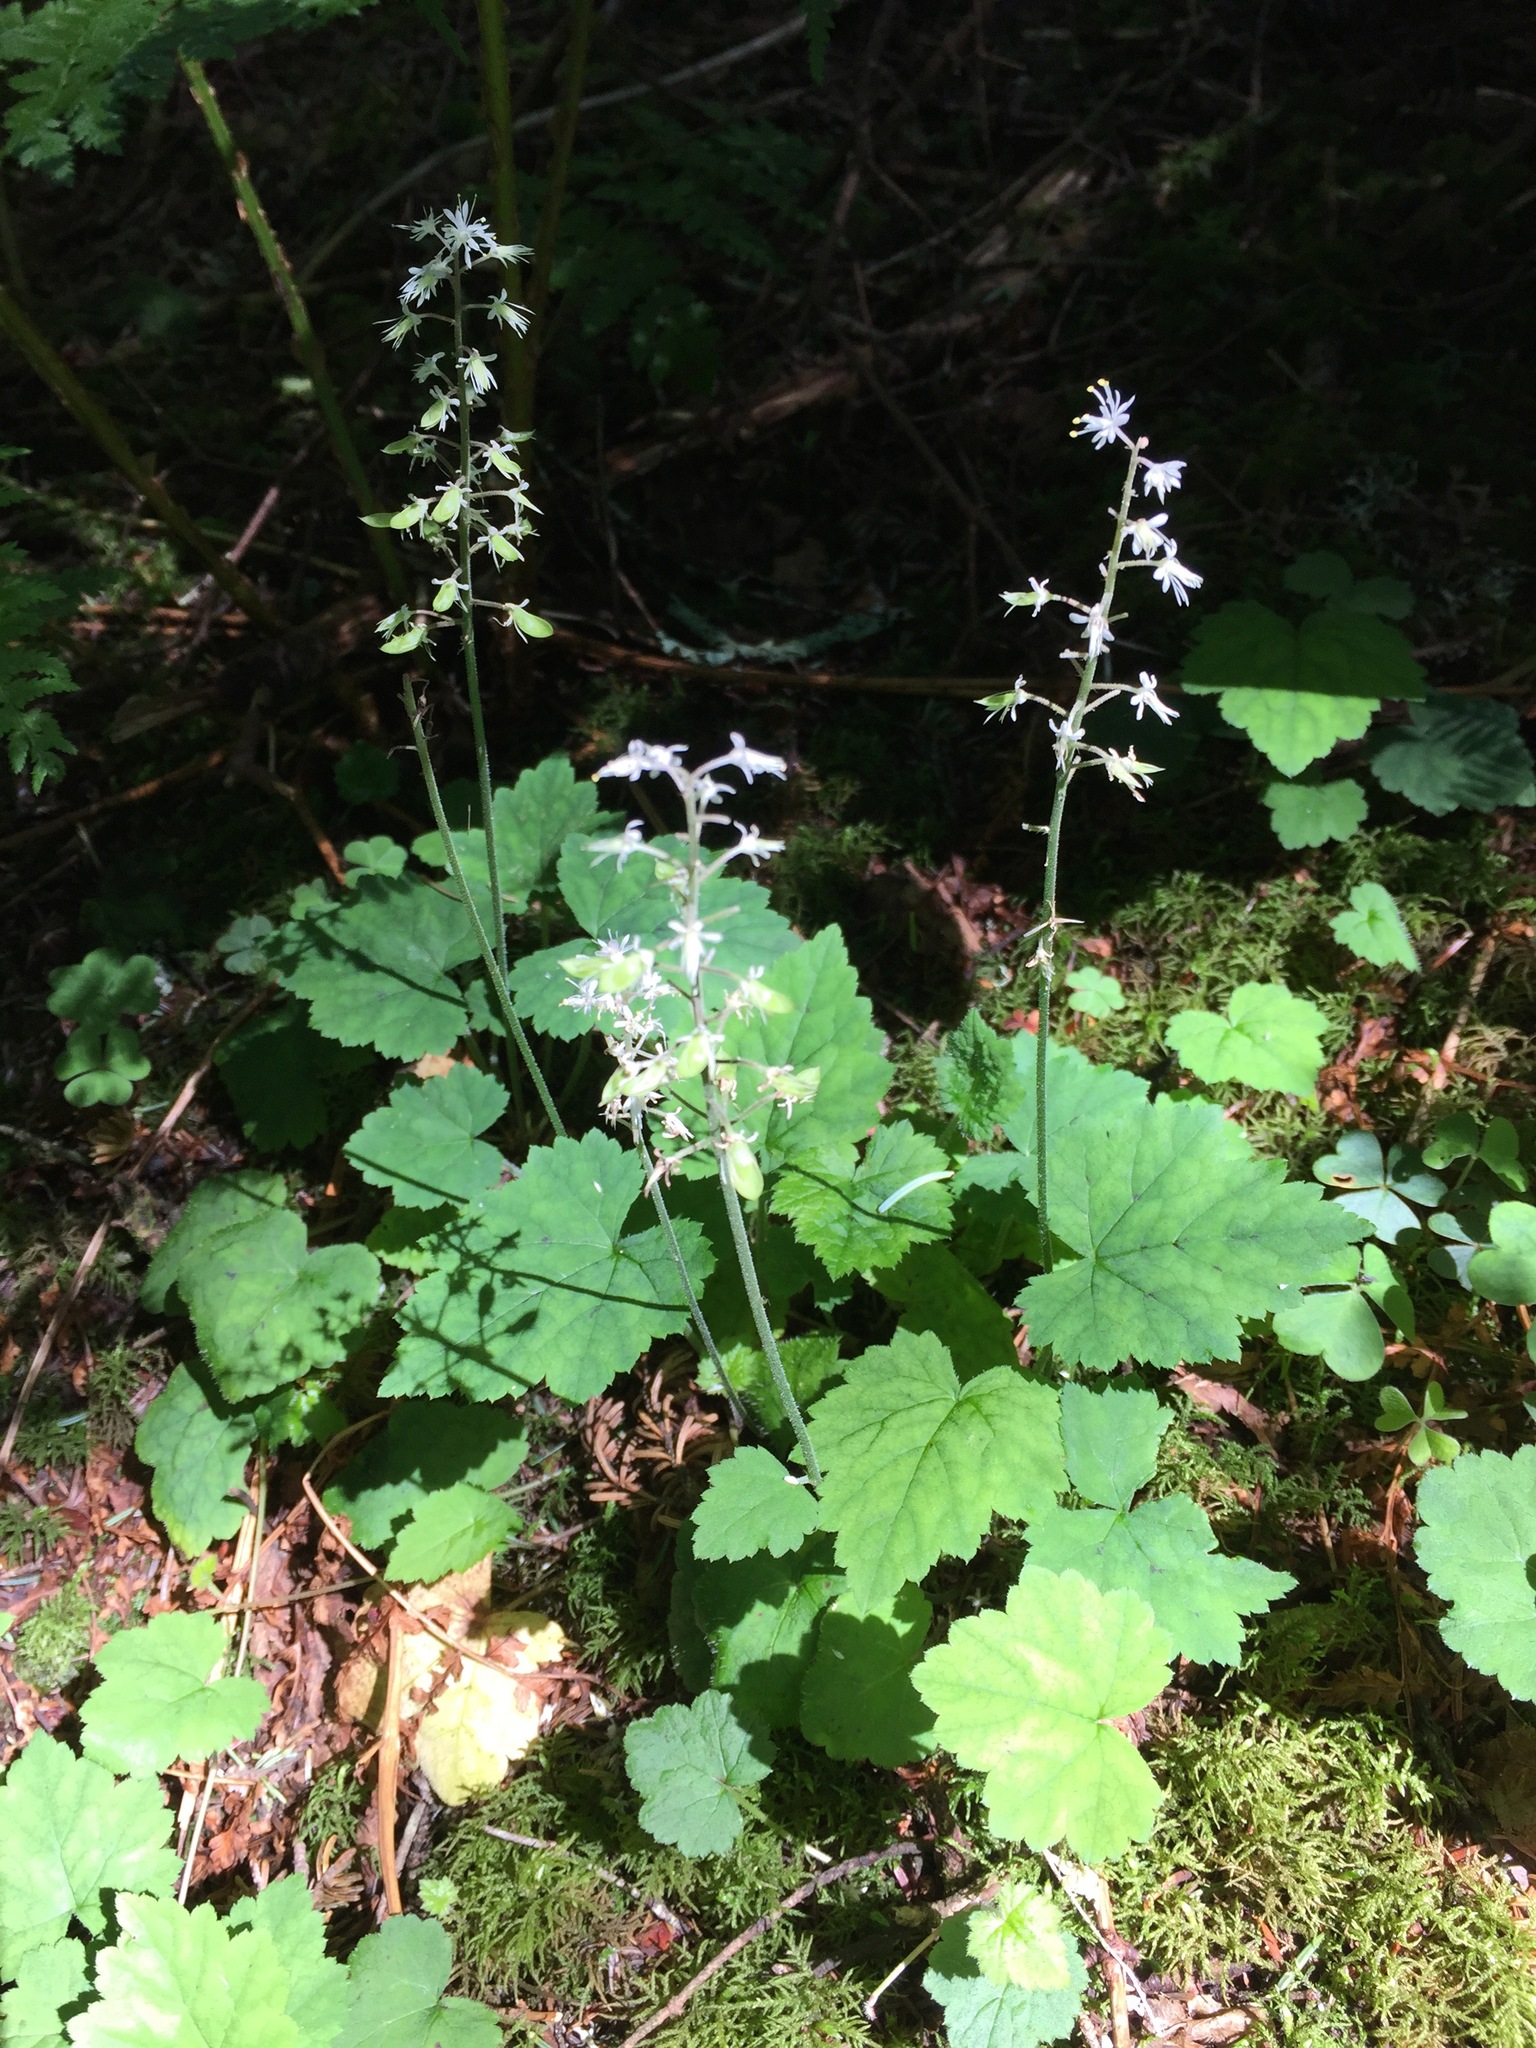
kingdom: Plantae
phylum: Tracheophyta
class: Magnoliopsida
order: Saxifragales
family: Saxifragaceae
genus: Tiarella
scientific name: Tiarella stolonifera
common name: Stoloniferous foamflower
